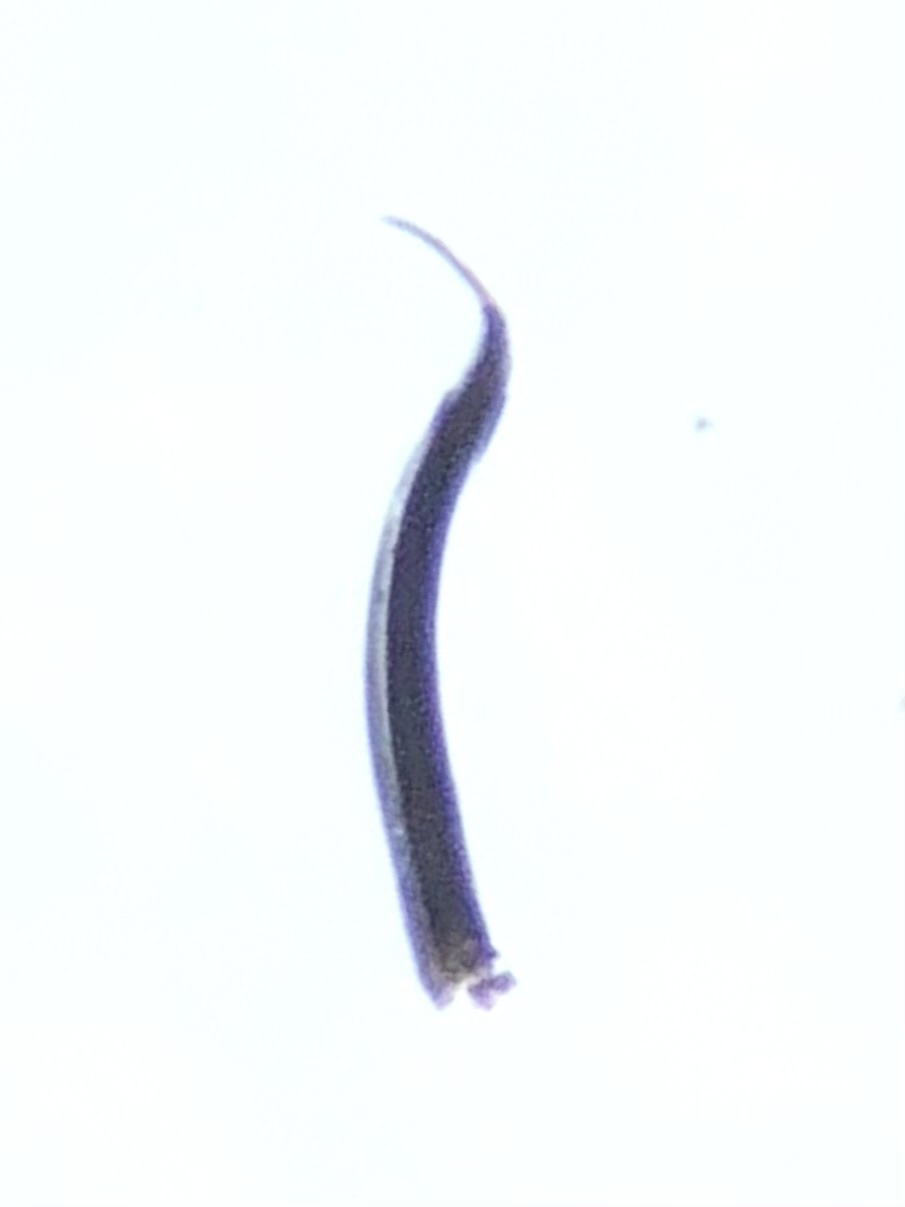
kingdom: Animalia
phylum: Arthropoda
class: Arachnida
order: Opiliones
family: Nemastomatidae
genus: Nemastoma
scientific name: Nemastoma bimaculatum
